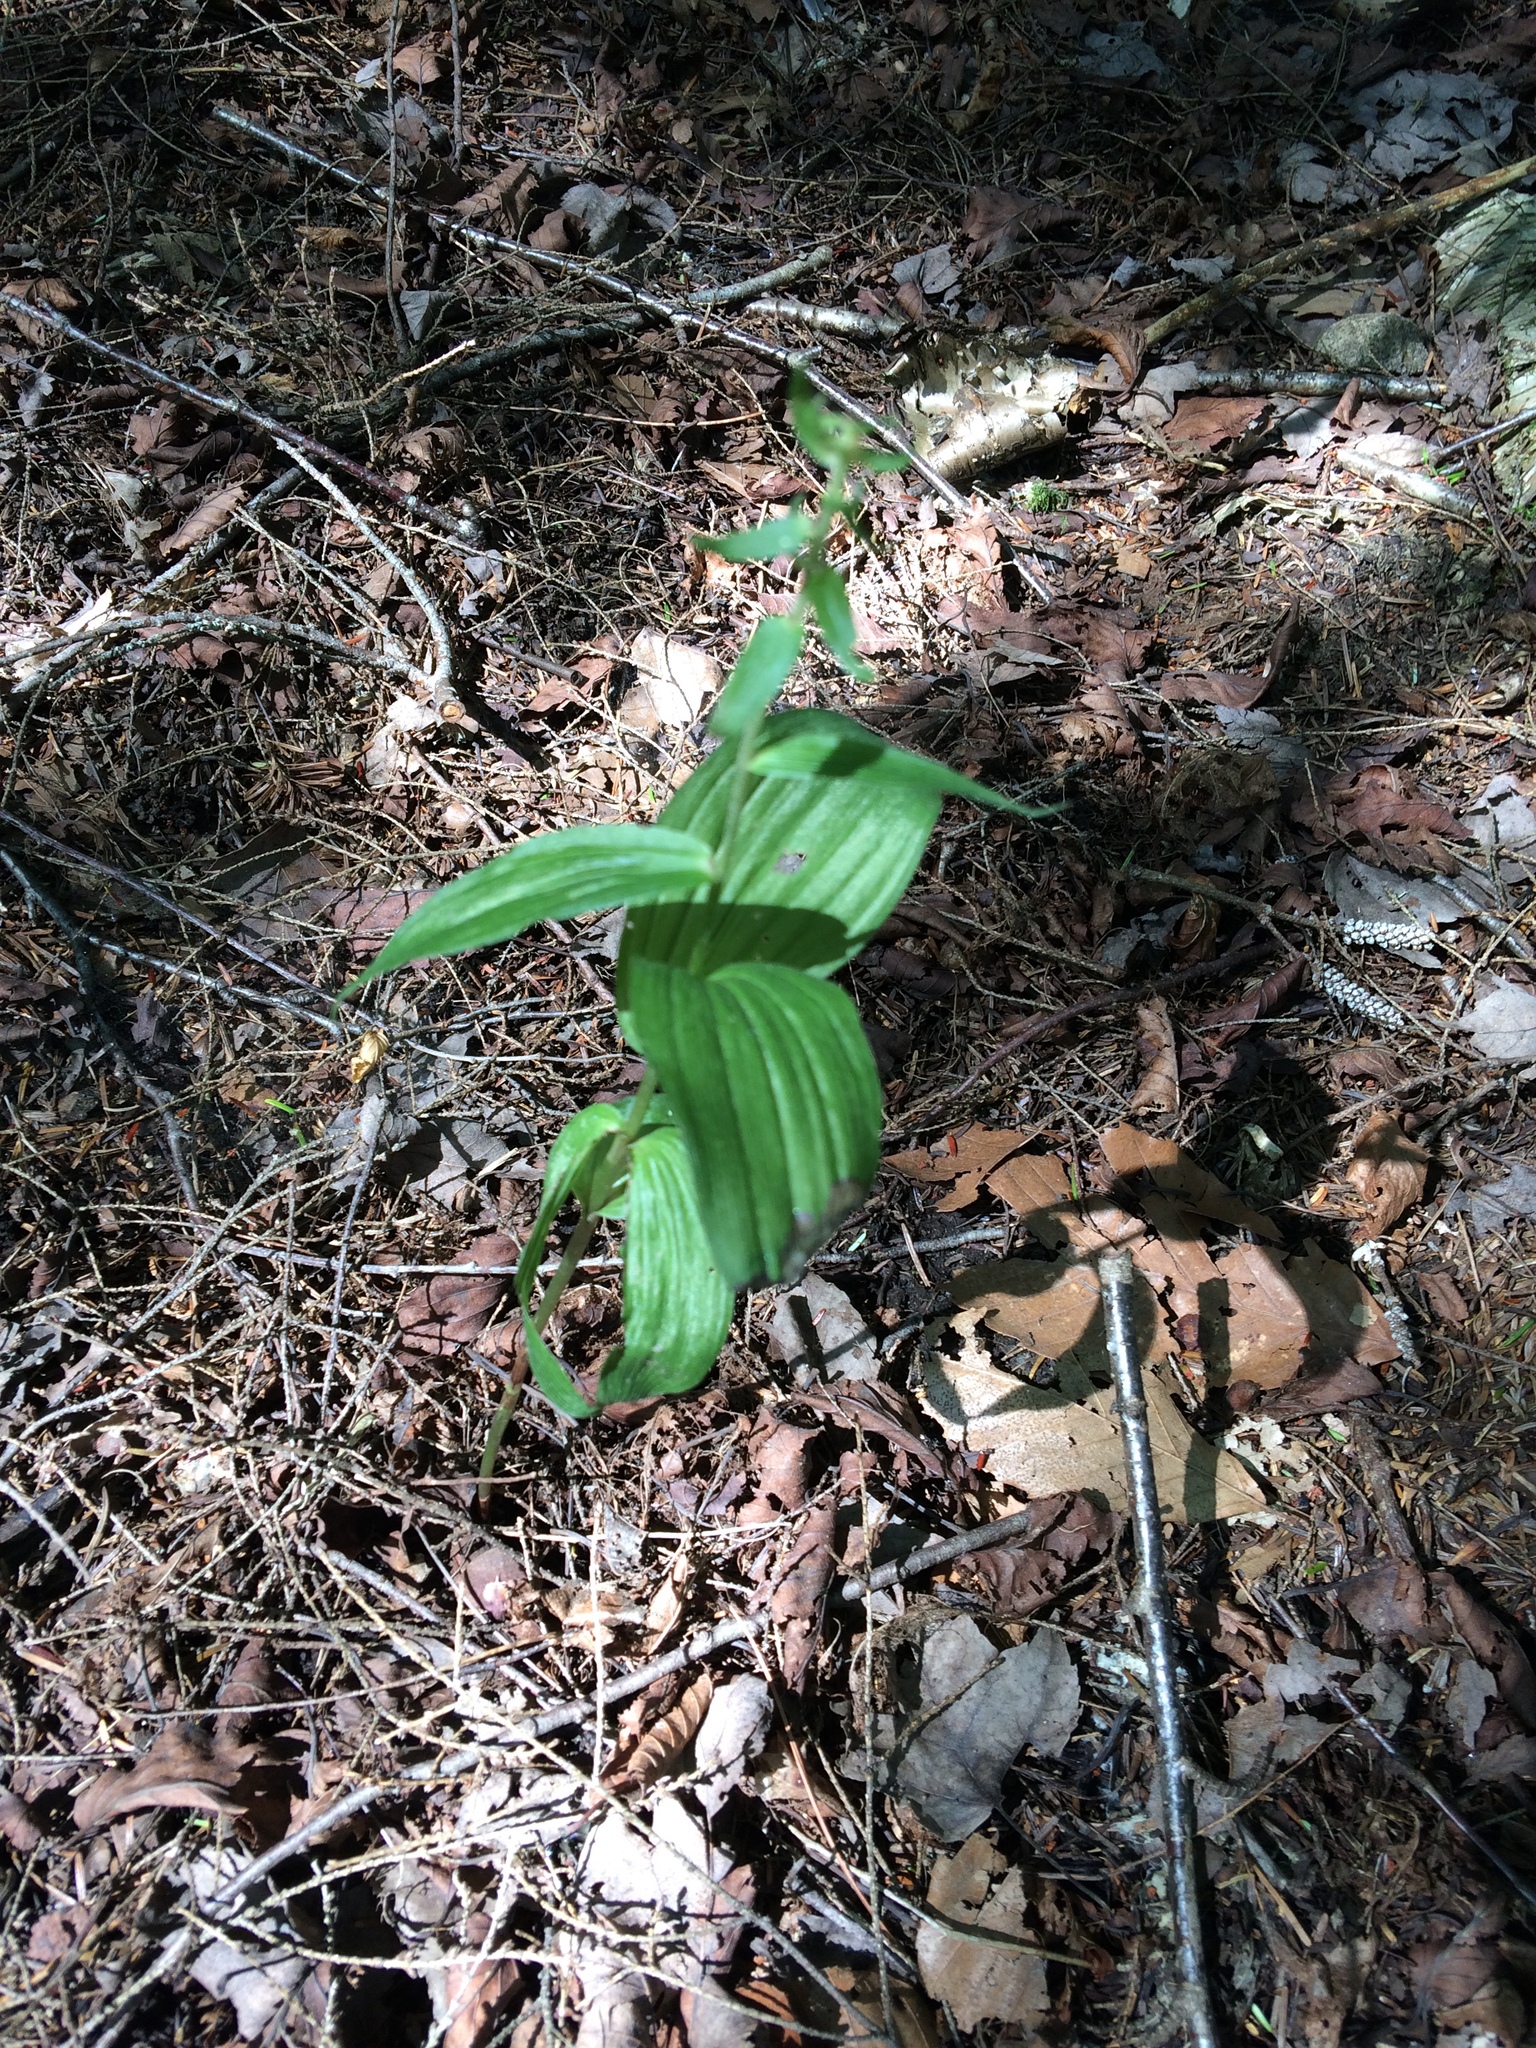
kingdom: Plantae
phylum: Tracheophyta
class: Liliopsida
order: Asparagales
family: Orchidaceae
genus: Epipactis
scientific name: Epipactis helleborine
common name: Broad-leaved helleborine
